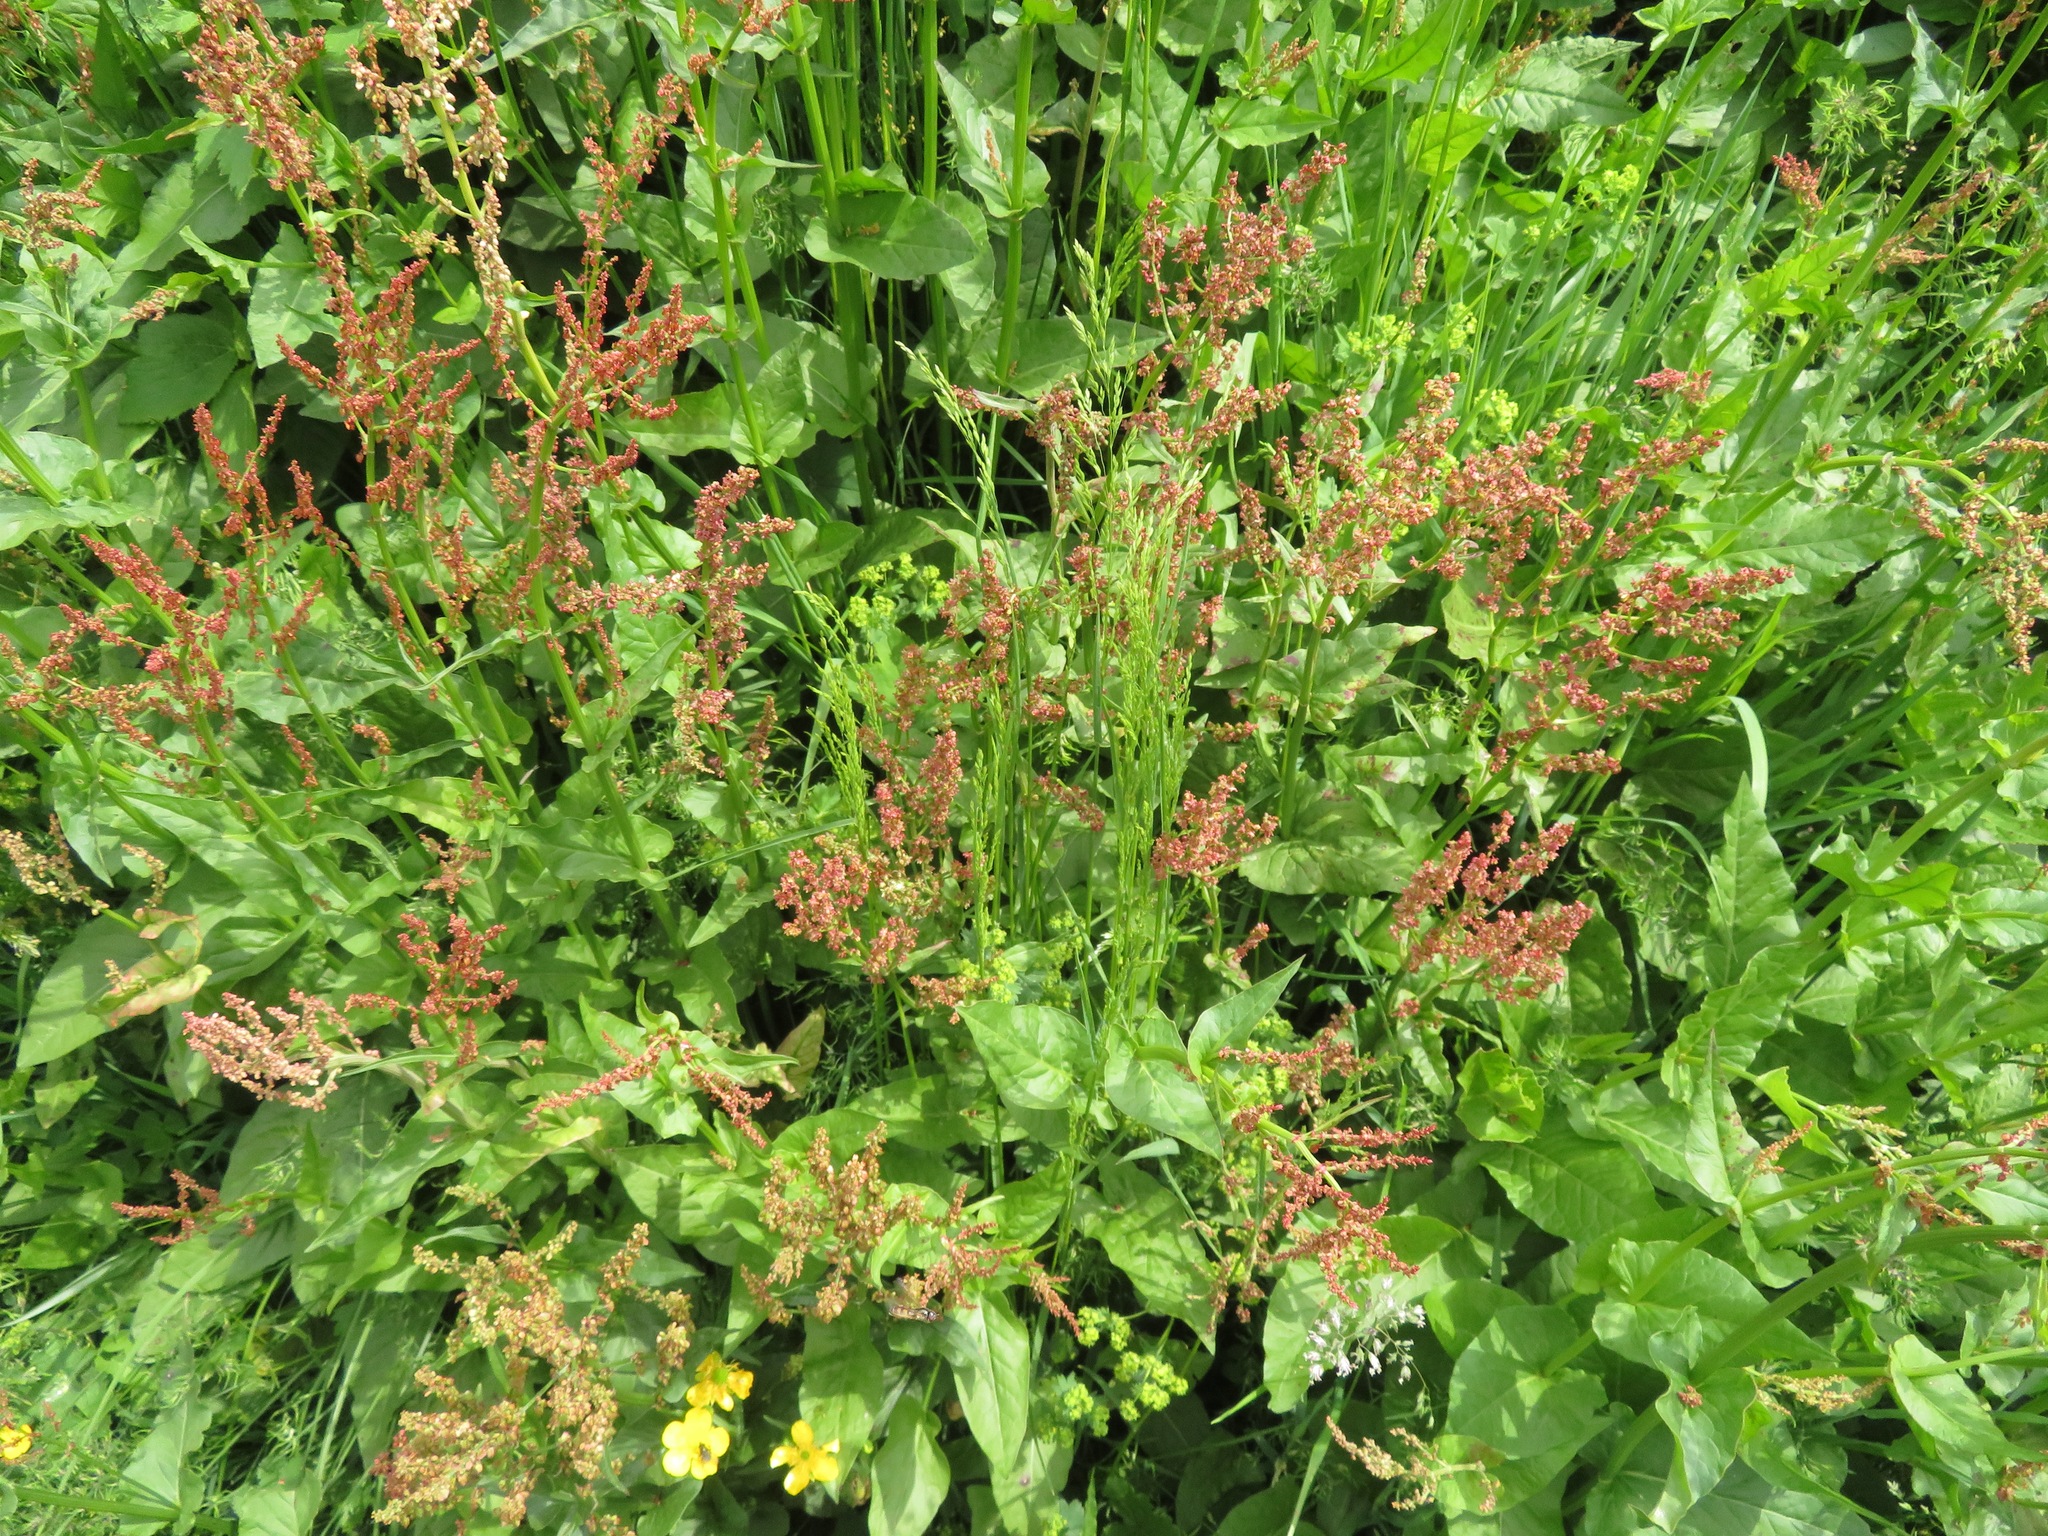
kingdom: Plantae
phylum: Tracheophyta
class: Magnoliopsida
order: Caryophyllales
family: Polygonaceae
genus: Rumex
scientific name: Rumex acetosa
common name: Garden sorrel
